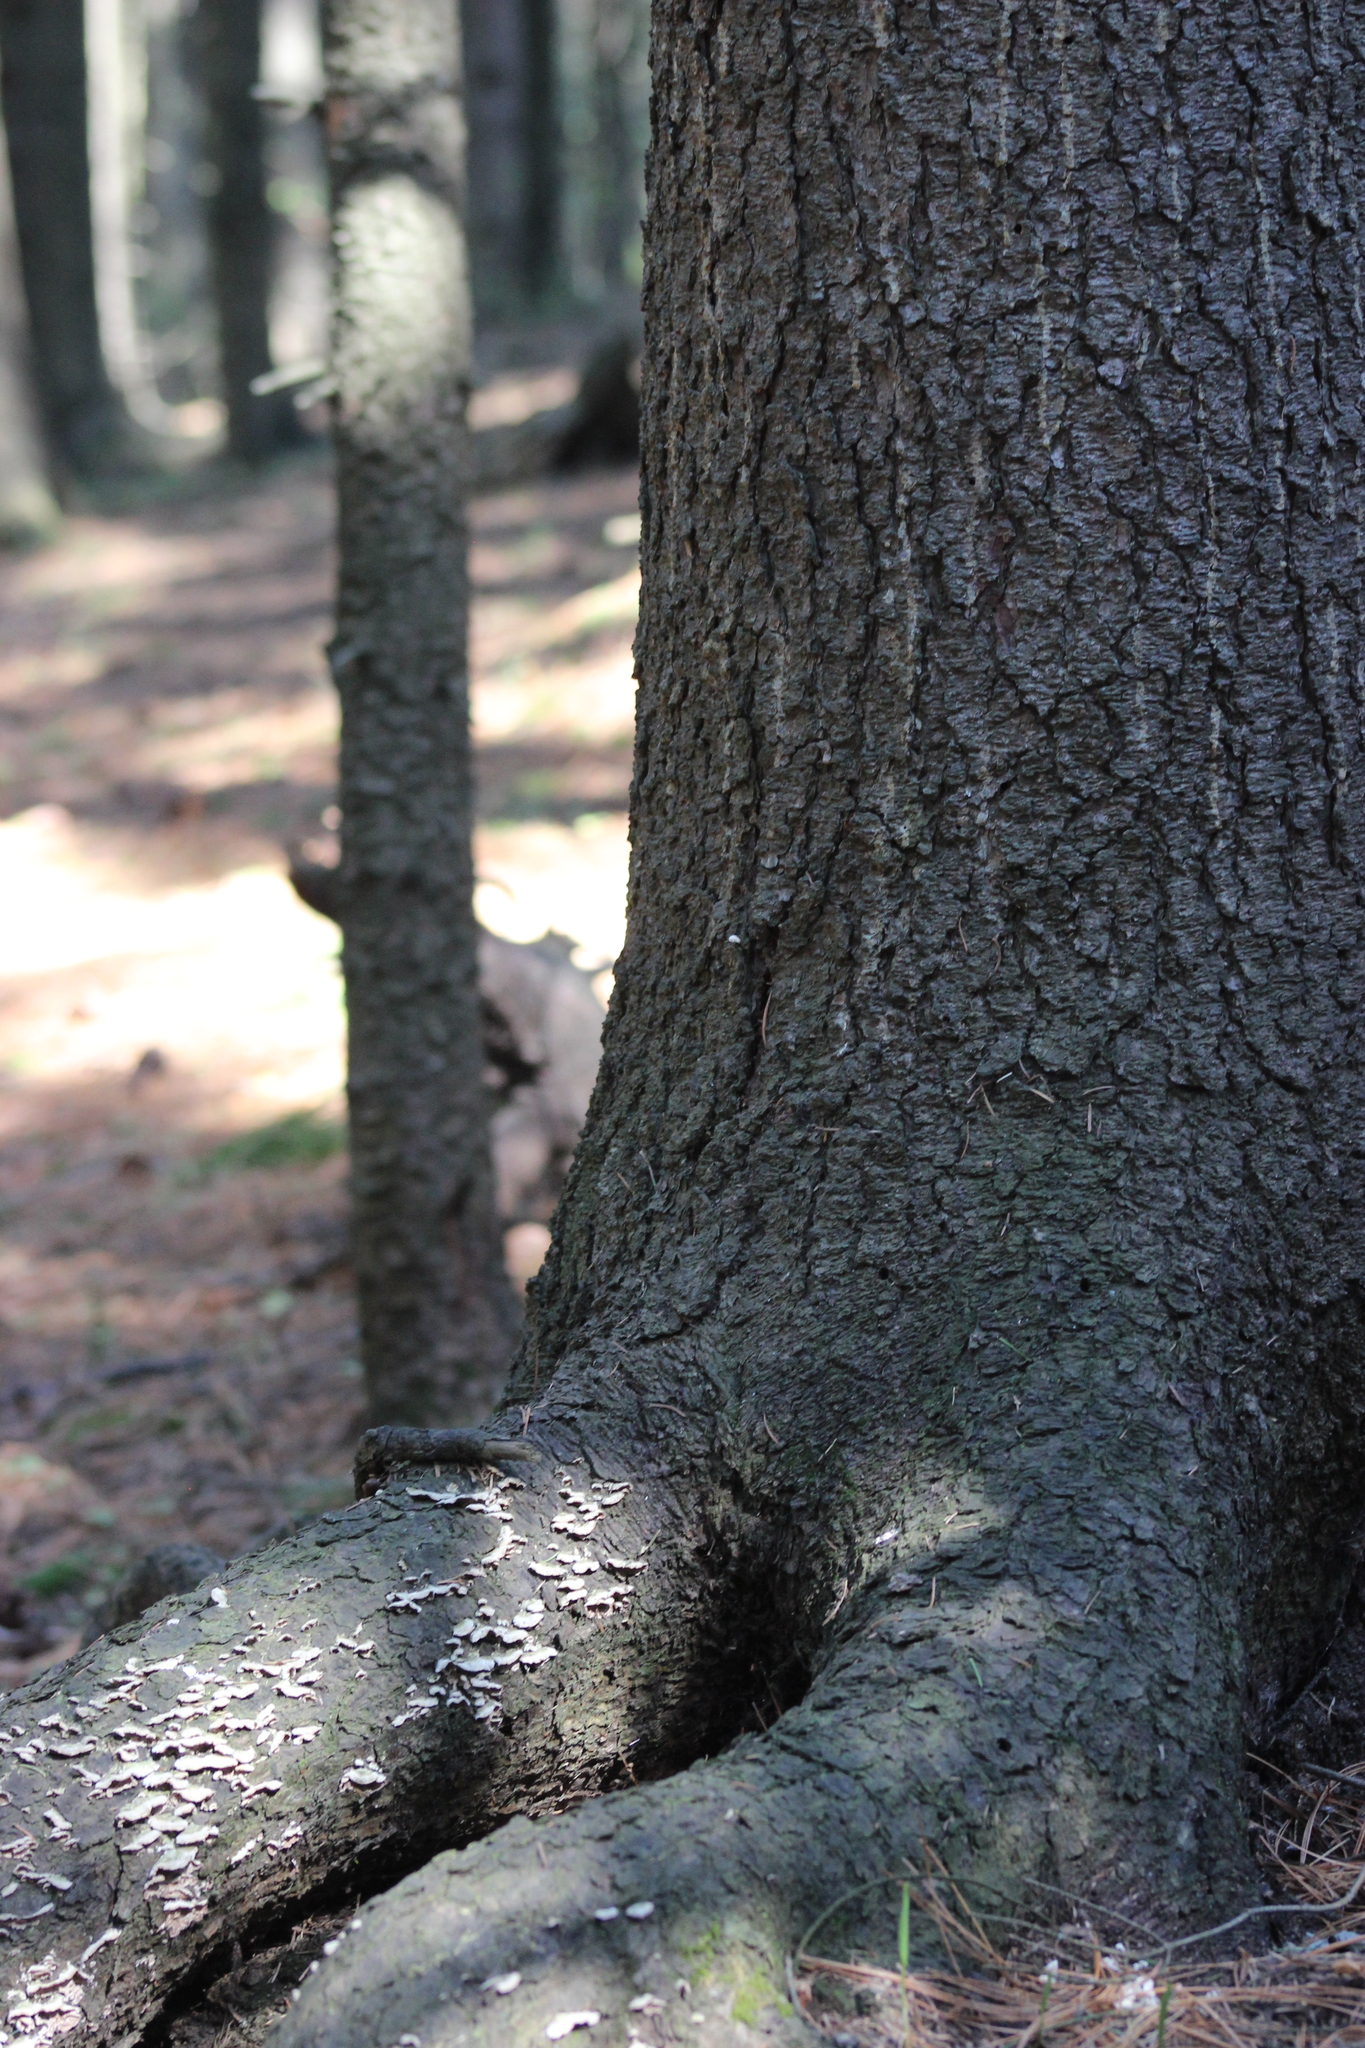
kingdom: Fungi
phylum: Basidiomycota
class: Agaricomycetes
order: Hymenochaetales
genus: Trichaptum
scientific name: Trichaptum abietinum
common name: Purplepore bracket
